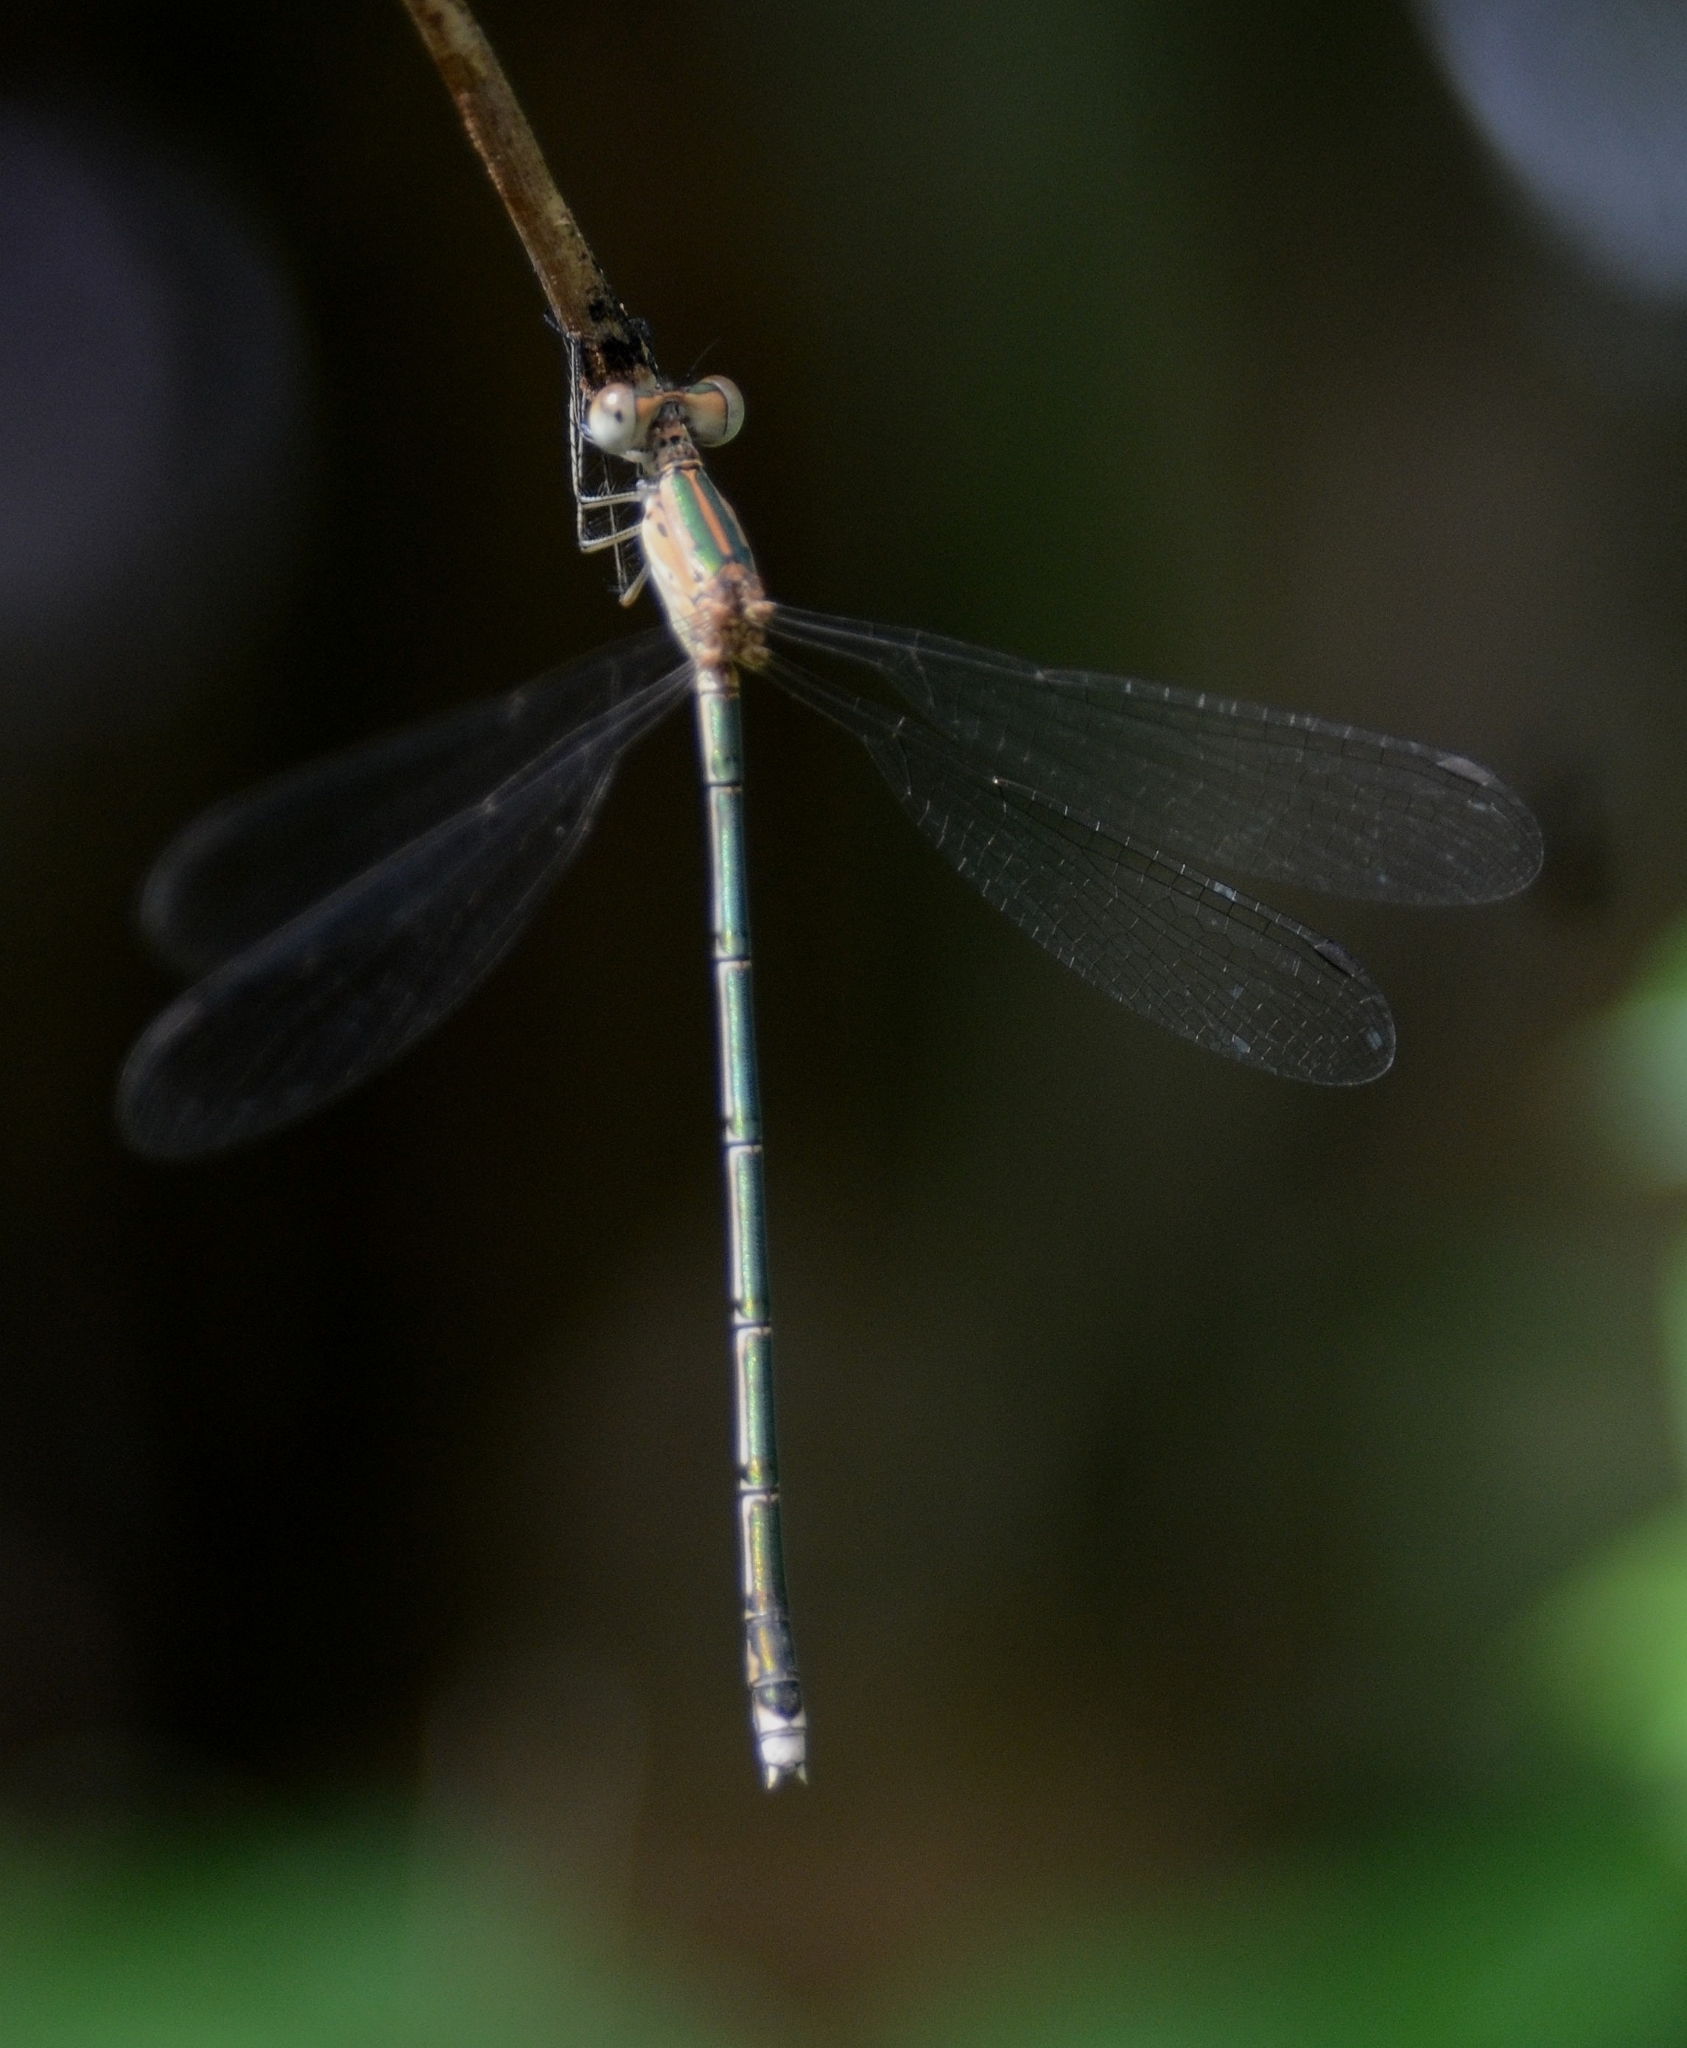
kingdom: Animalia
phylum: Arthropoda
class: Insecta
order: Odonata
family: Lestidae
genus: Lestes
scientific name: Lestes elatus
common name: Emerald spreadwing
